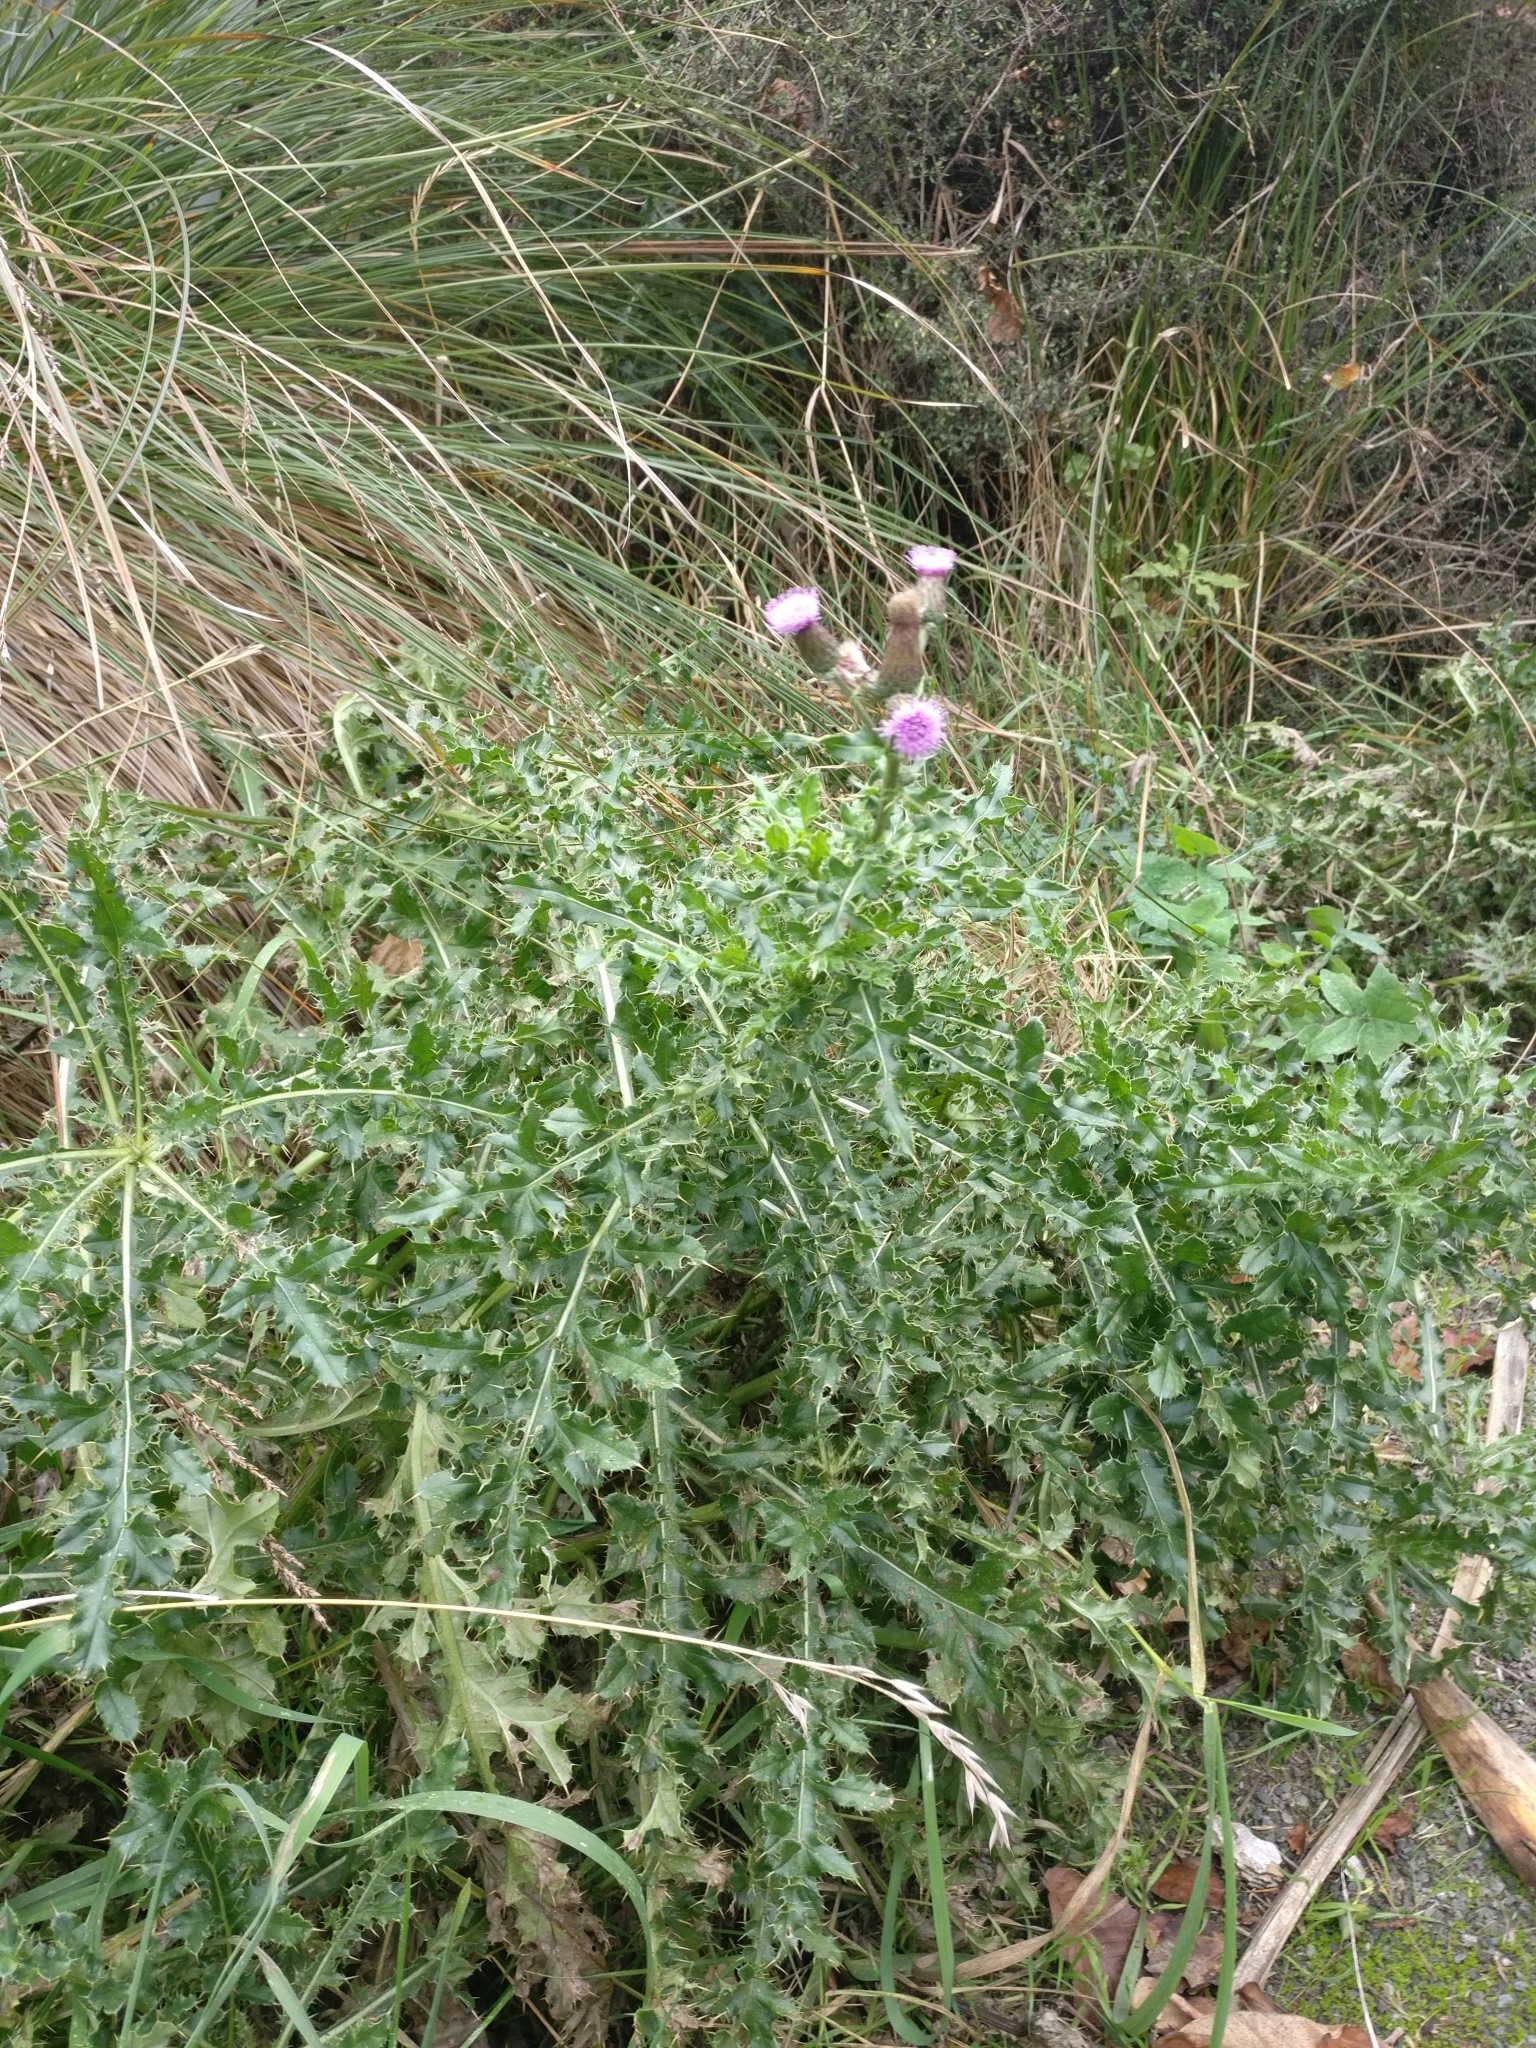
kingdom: Plantae
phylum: Tracheophyta
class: Magnoliopsida
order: Asterales
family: Asteraceae
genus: Cirsium
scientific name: Cirsium arvense
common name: Creeping thistle
